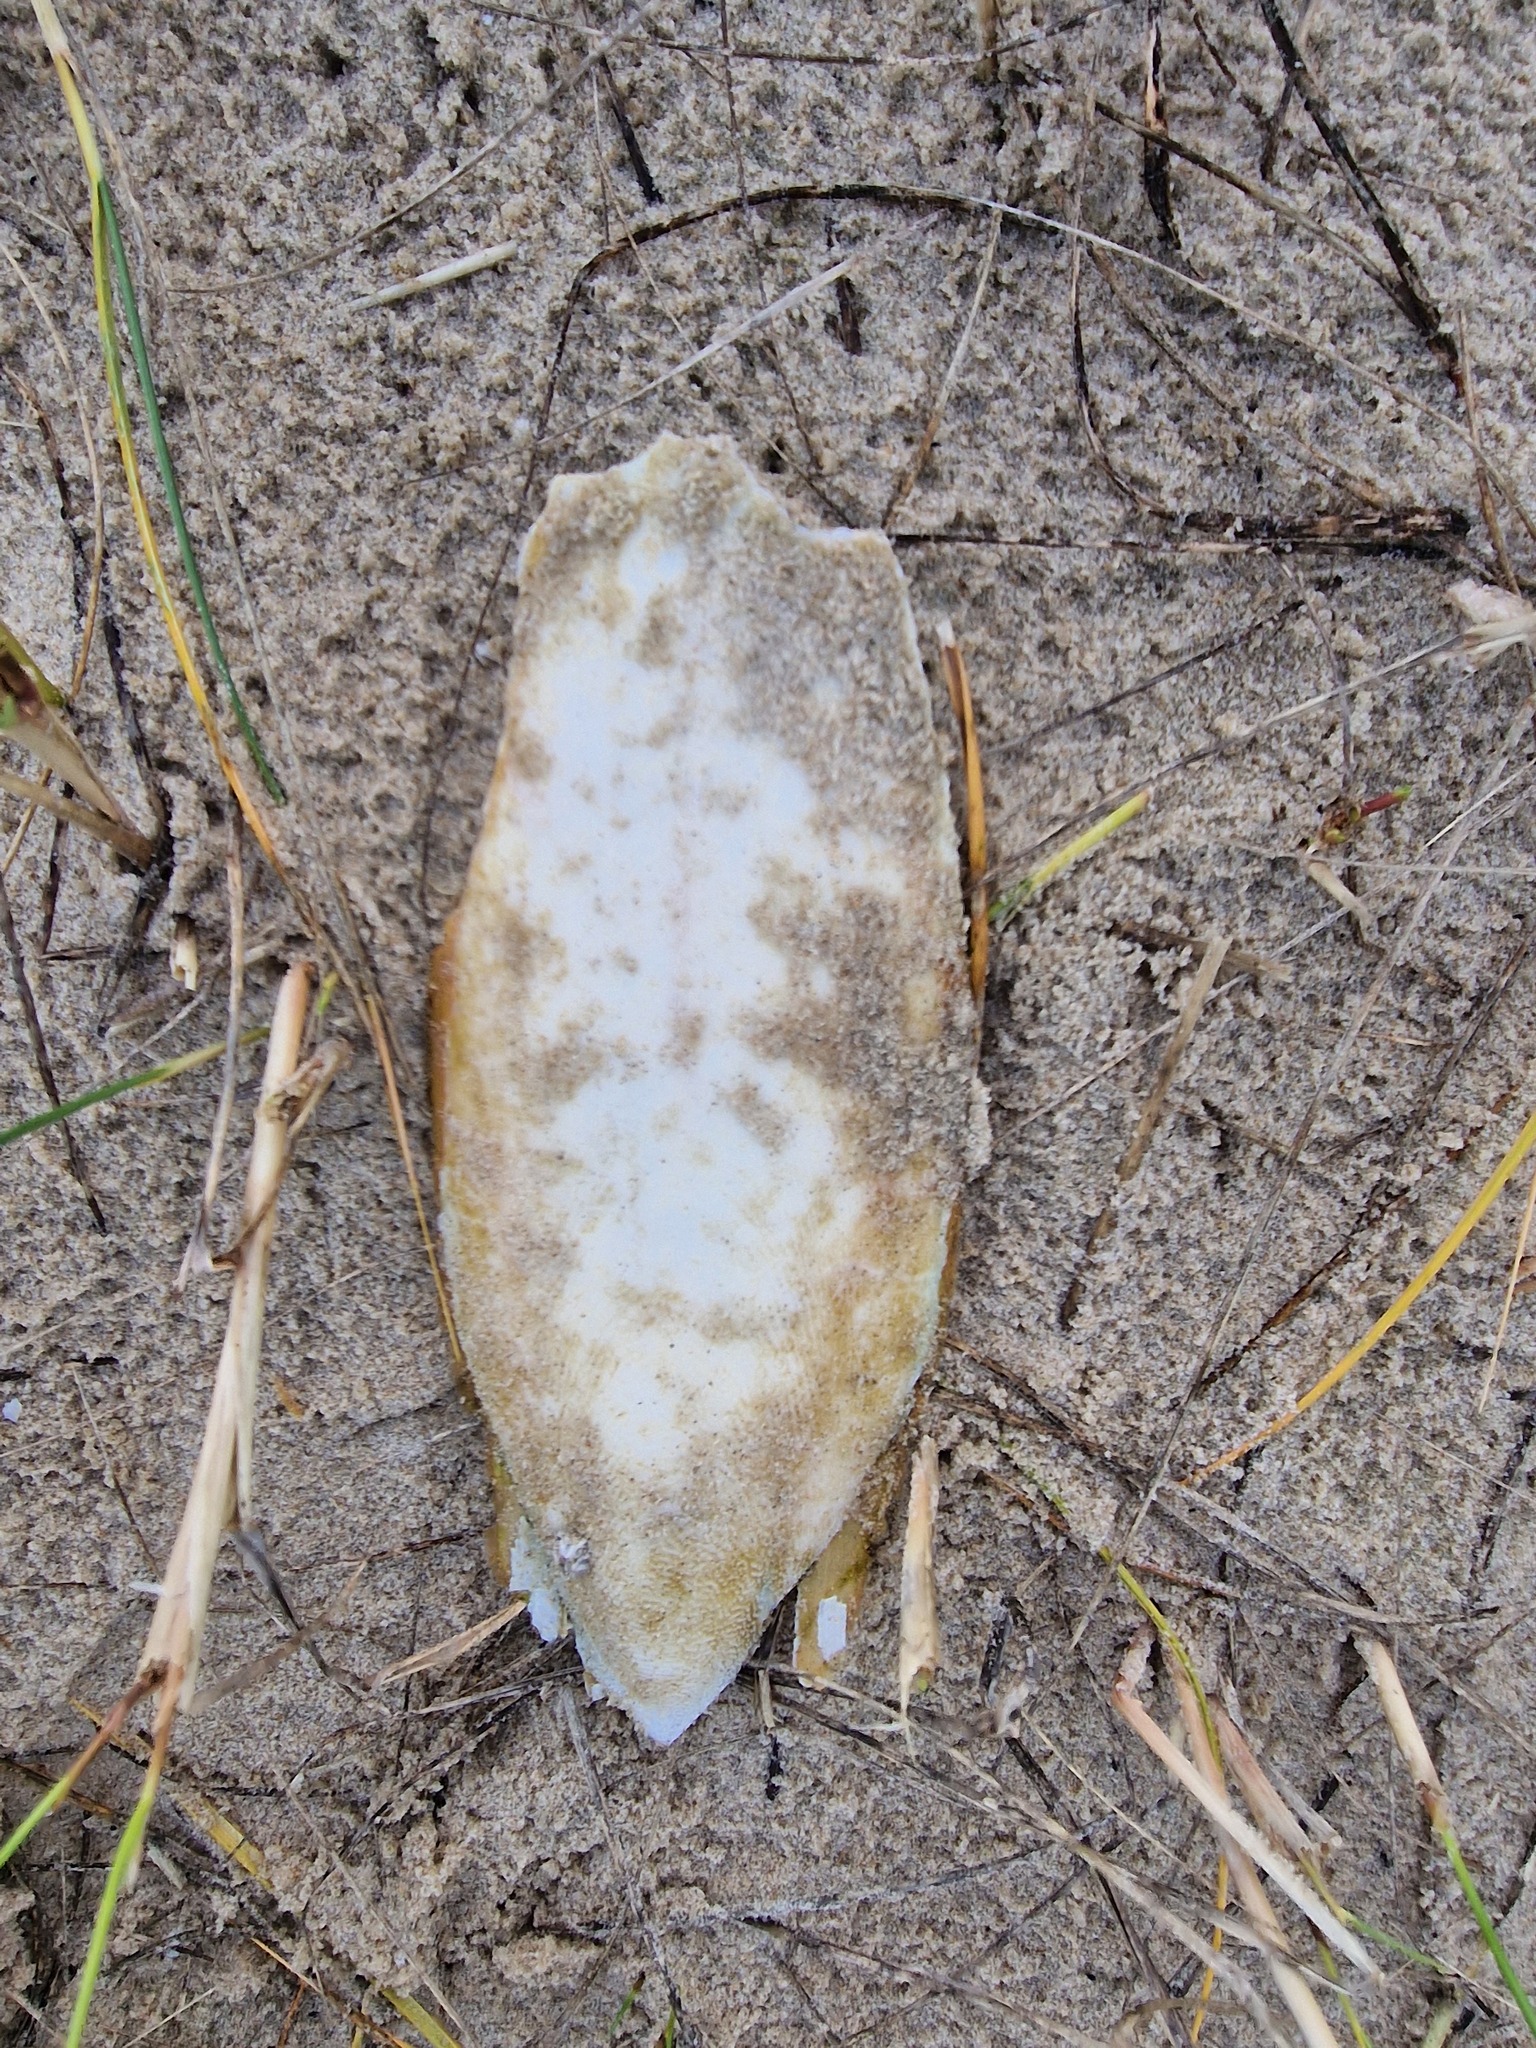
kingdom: Animalia
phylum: Mollusca
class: Cephalopoda
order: Sepiida
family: Sepiidae
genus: Sepia
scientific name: Sepia officinalis
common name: Common cuttlefish
